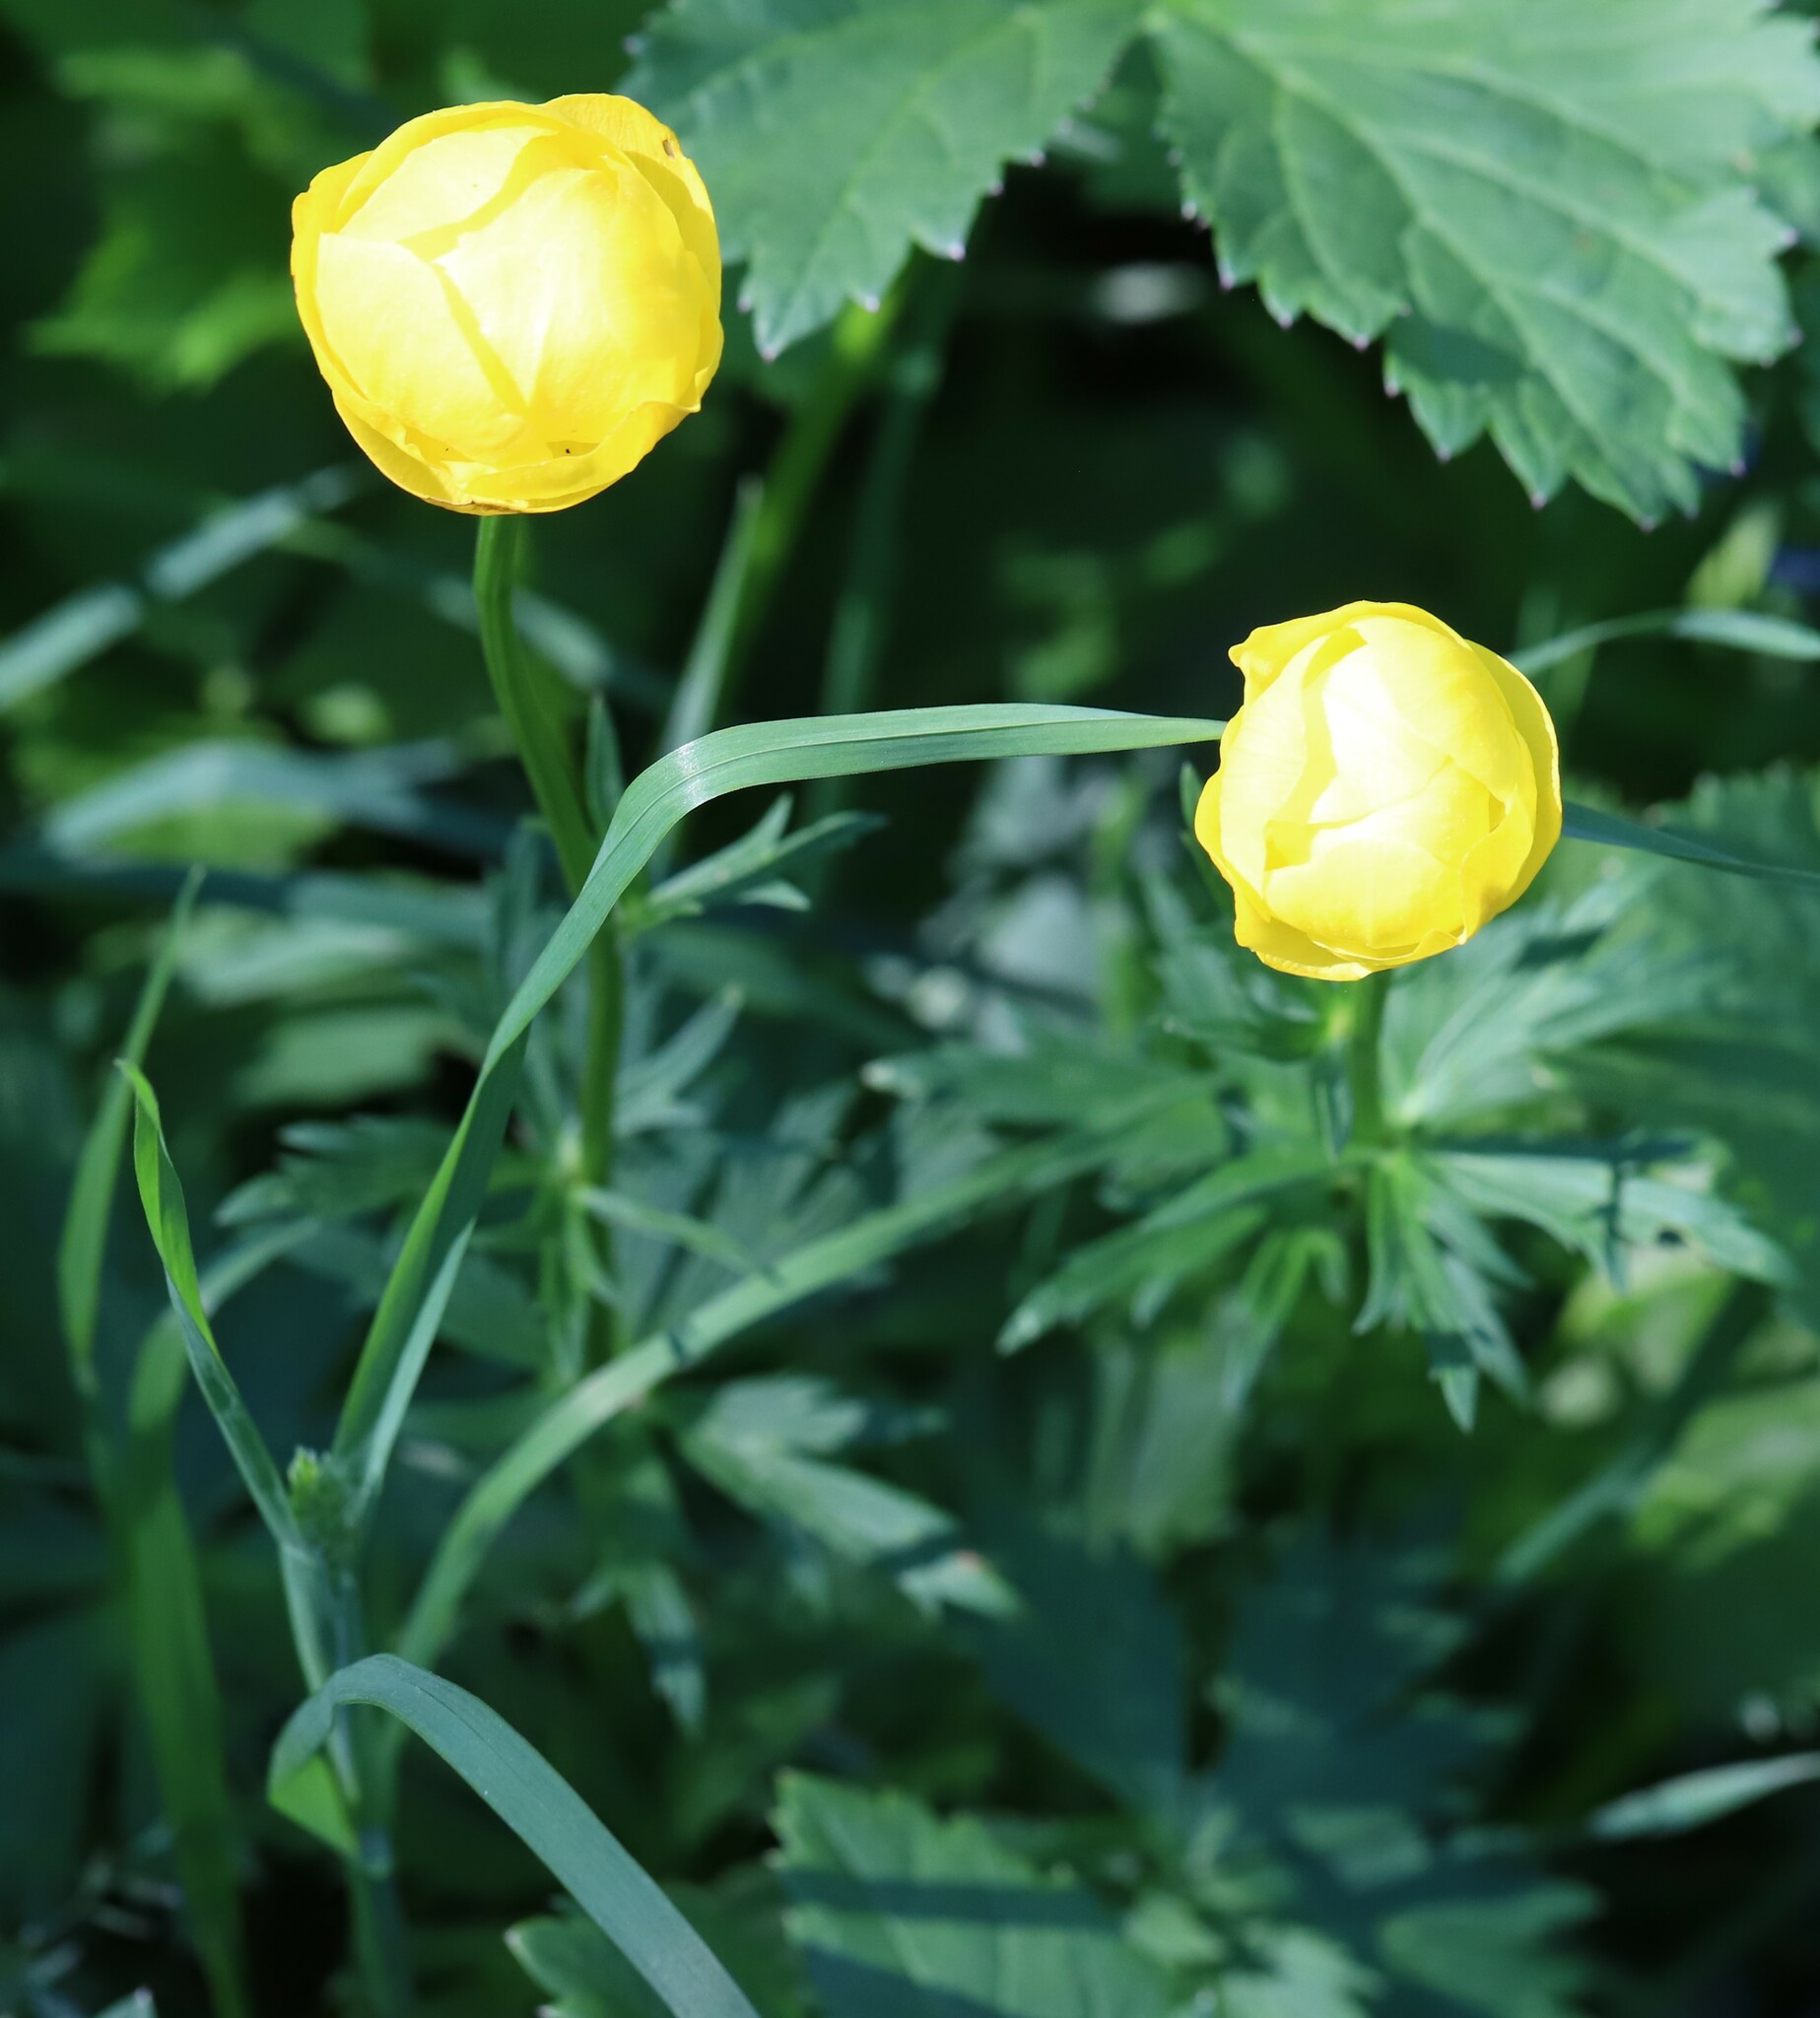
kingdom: Plantae
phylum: Tracheophyta
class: Magnoliopsida
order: Ranunculales
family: Ranunculaceae
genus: Trollius
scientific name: Trollius europaeus
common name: European globeflower
